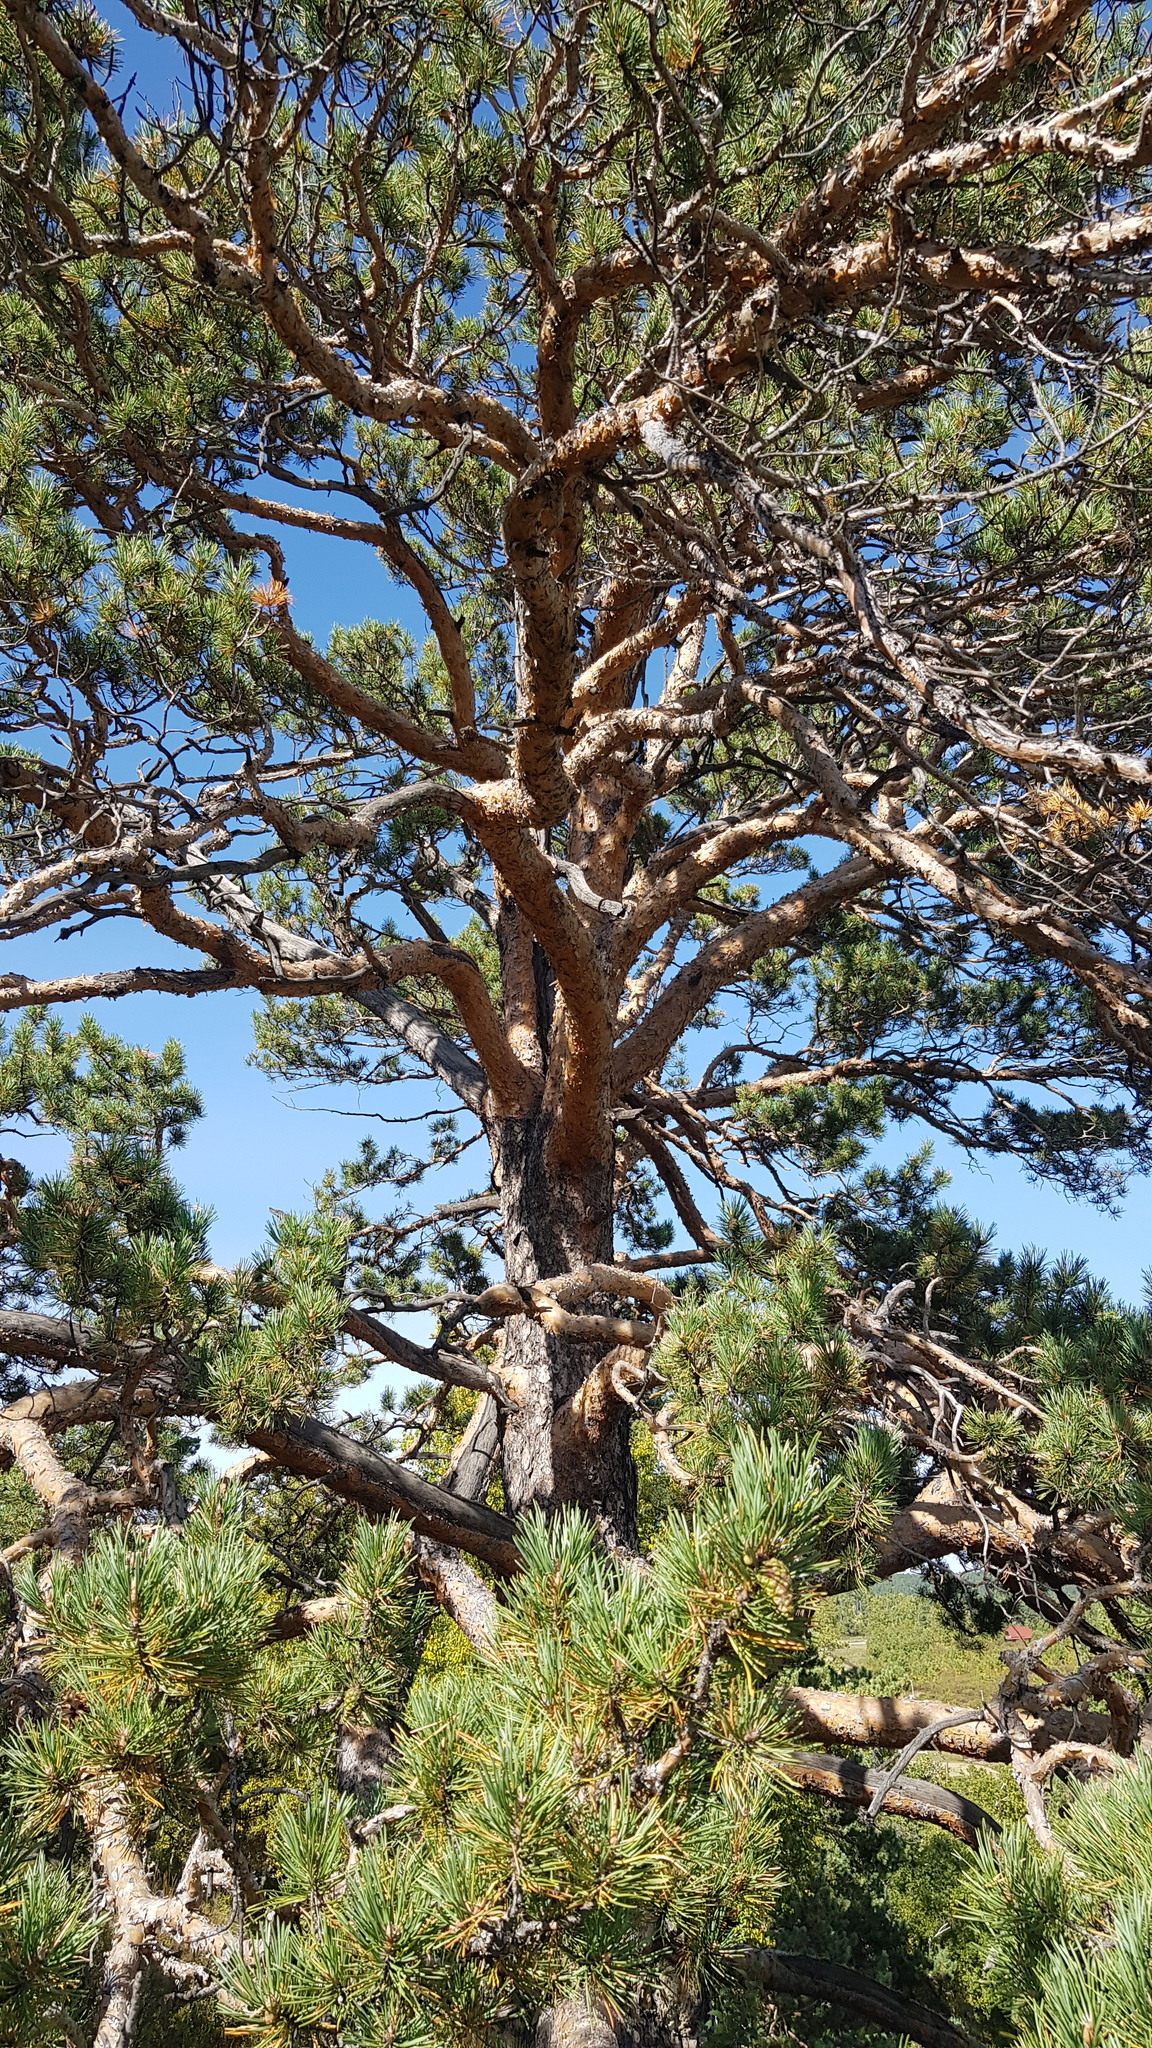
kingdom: Plantae
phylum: Tracheophyta
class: Pinopsida
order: Pinales
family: Pinaceae
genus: Pinus
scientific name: Pinus sylvestris
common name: Scots pine
